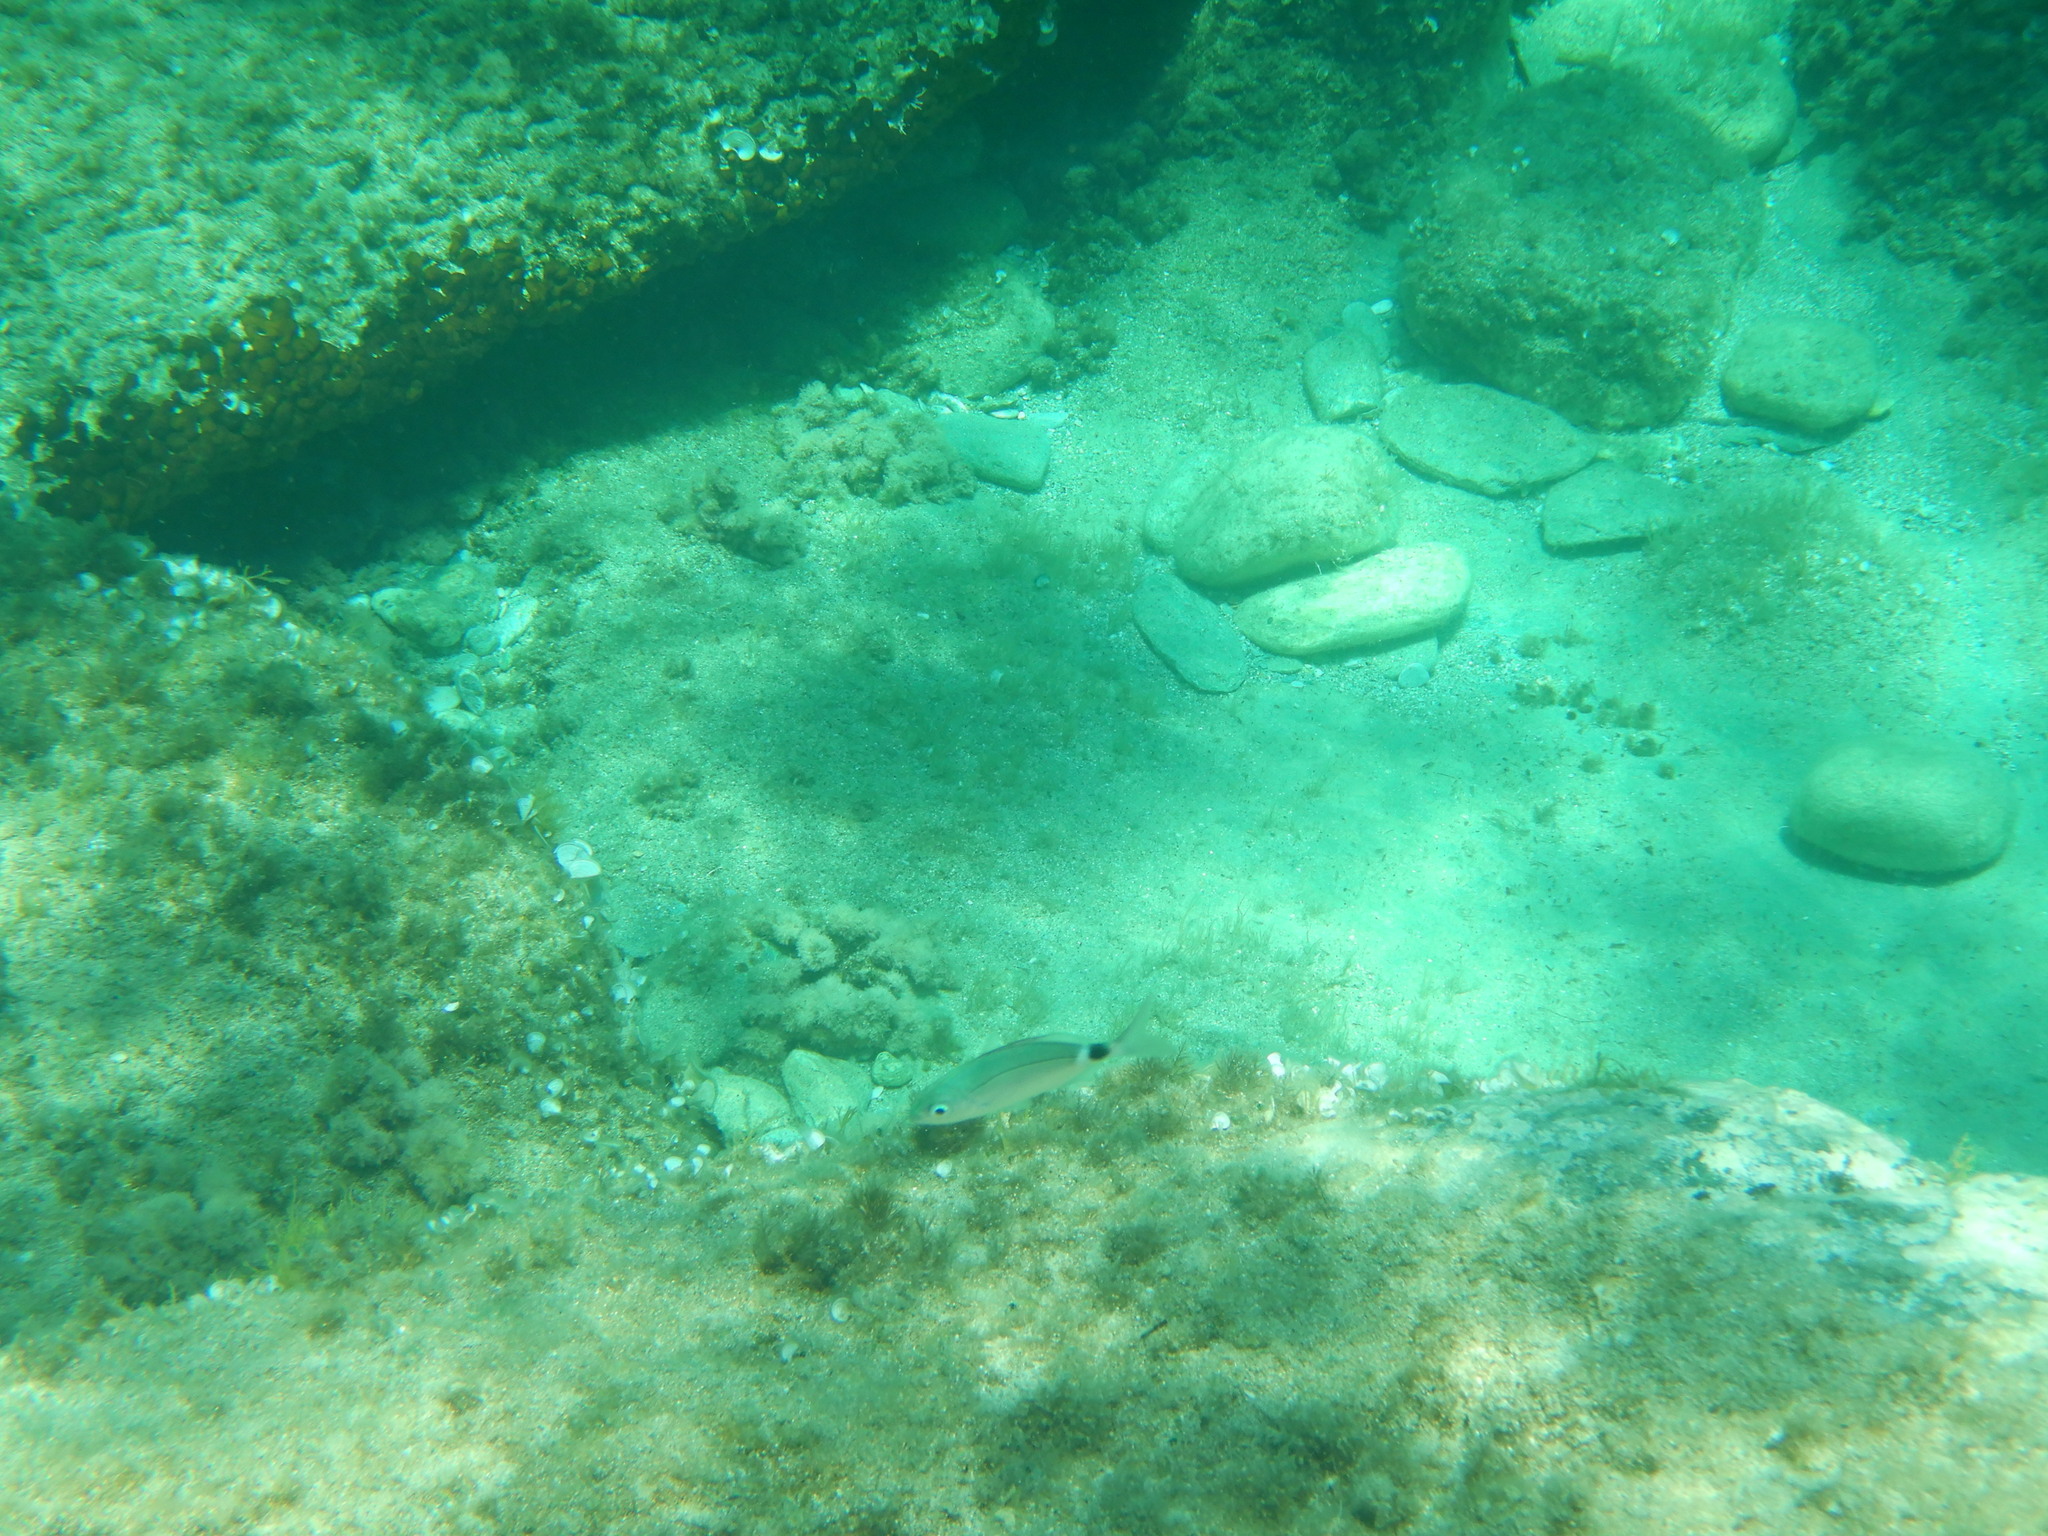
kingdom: Animalia
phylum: Chordata
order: Perciformes
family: Sparidae
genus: Oblada
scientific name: Oblada melanura
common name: Saddled seabream
